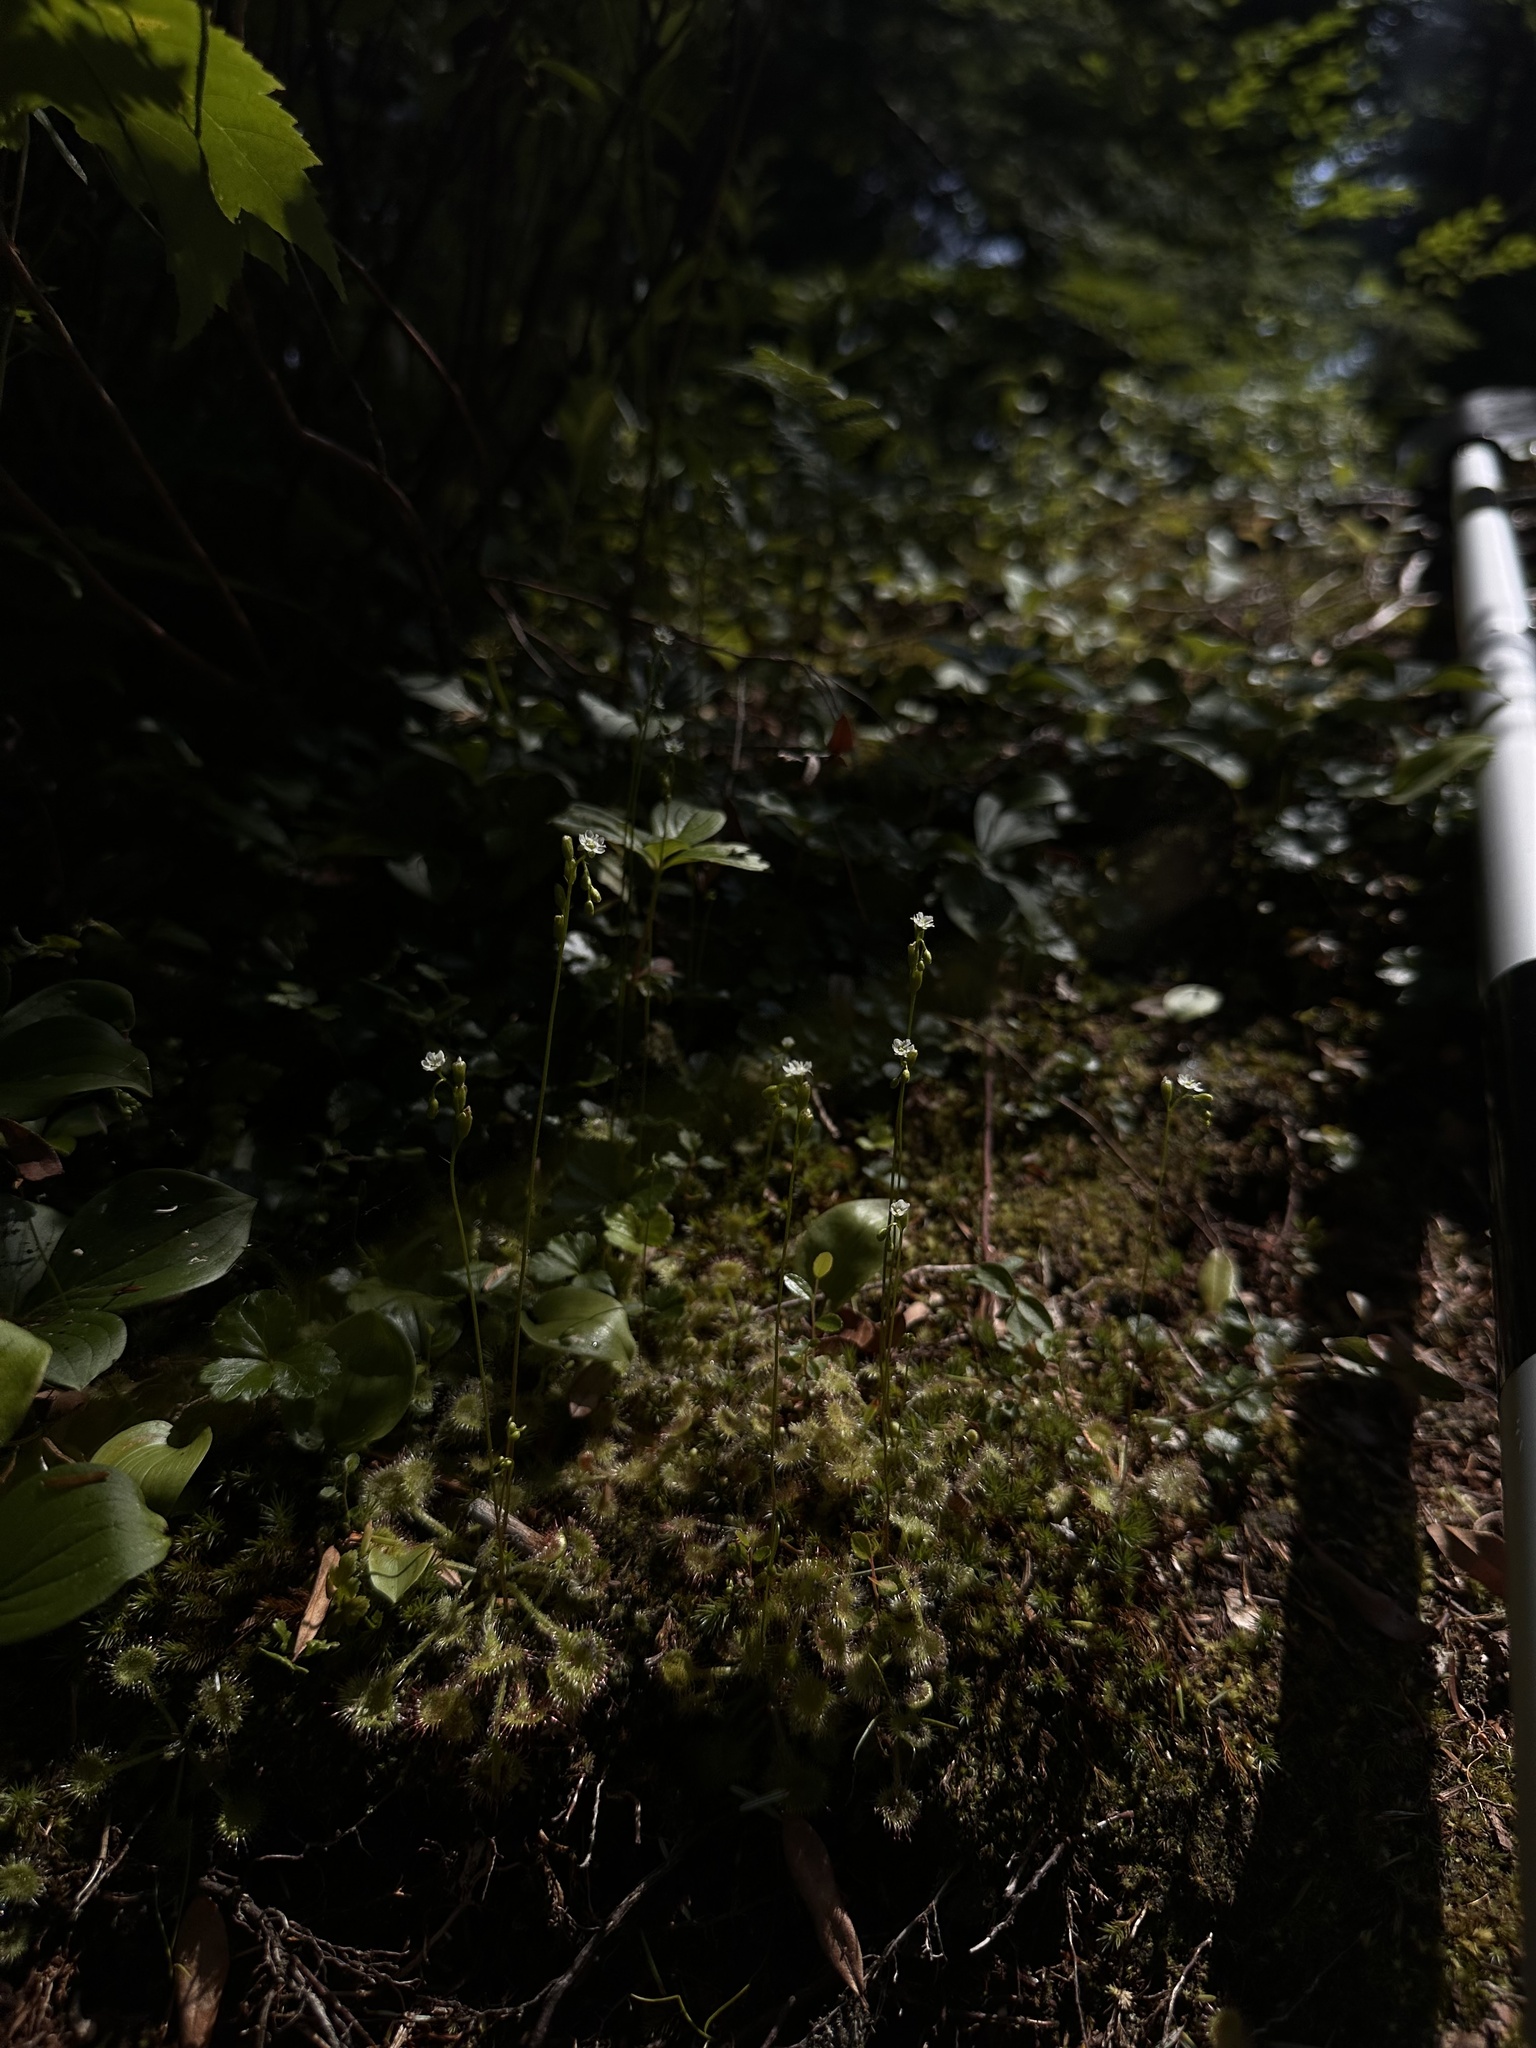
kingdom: Plantae
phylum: Tracheophyta
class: Magnoliopsida
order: Caryophyllales
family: Droseraceae
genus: Drosera
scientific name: Drosera rotundifolia
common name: Round-leaved sundew
